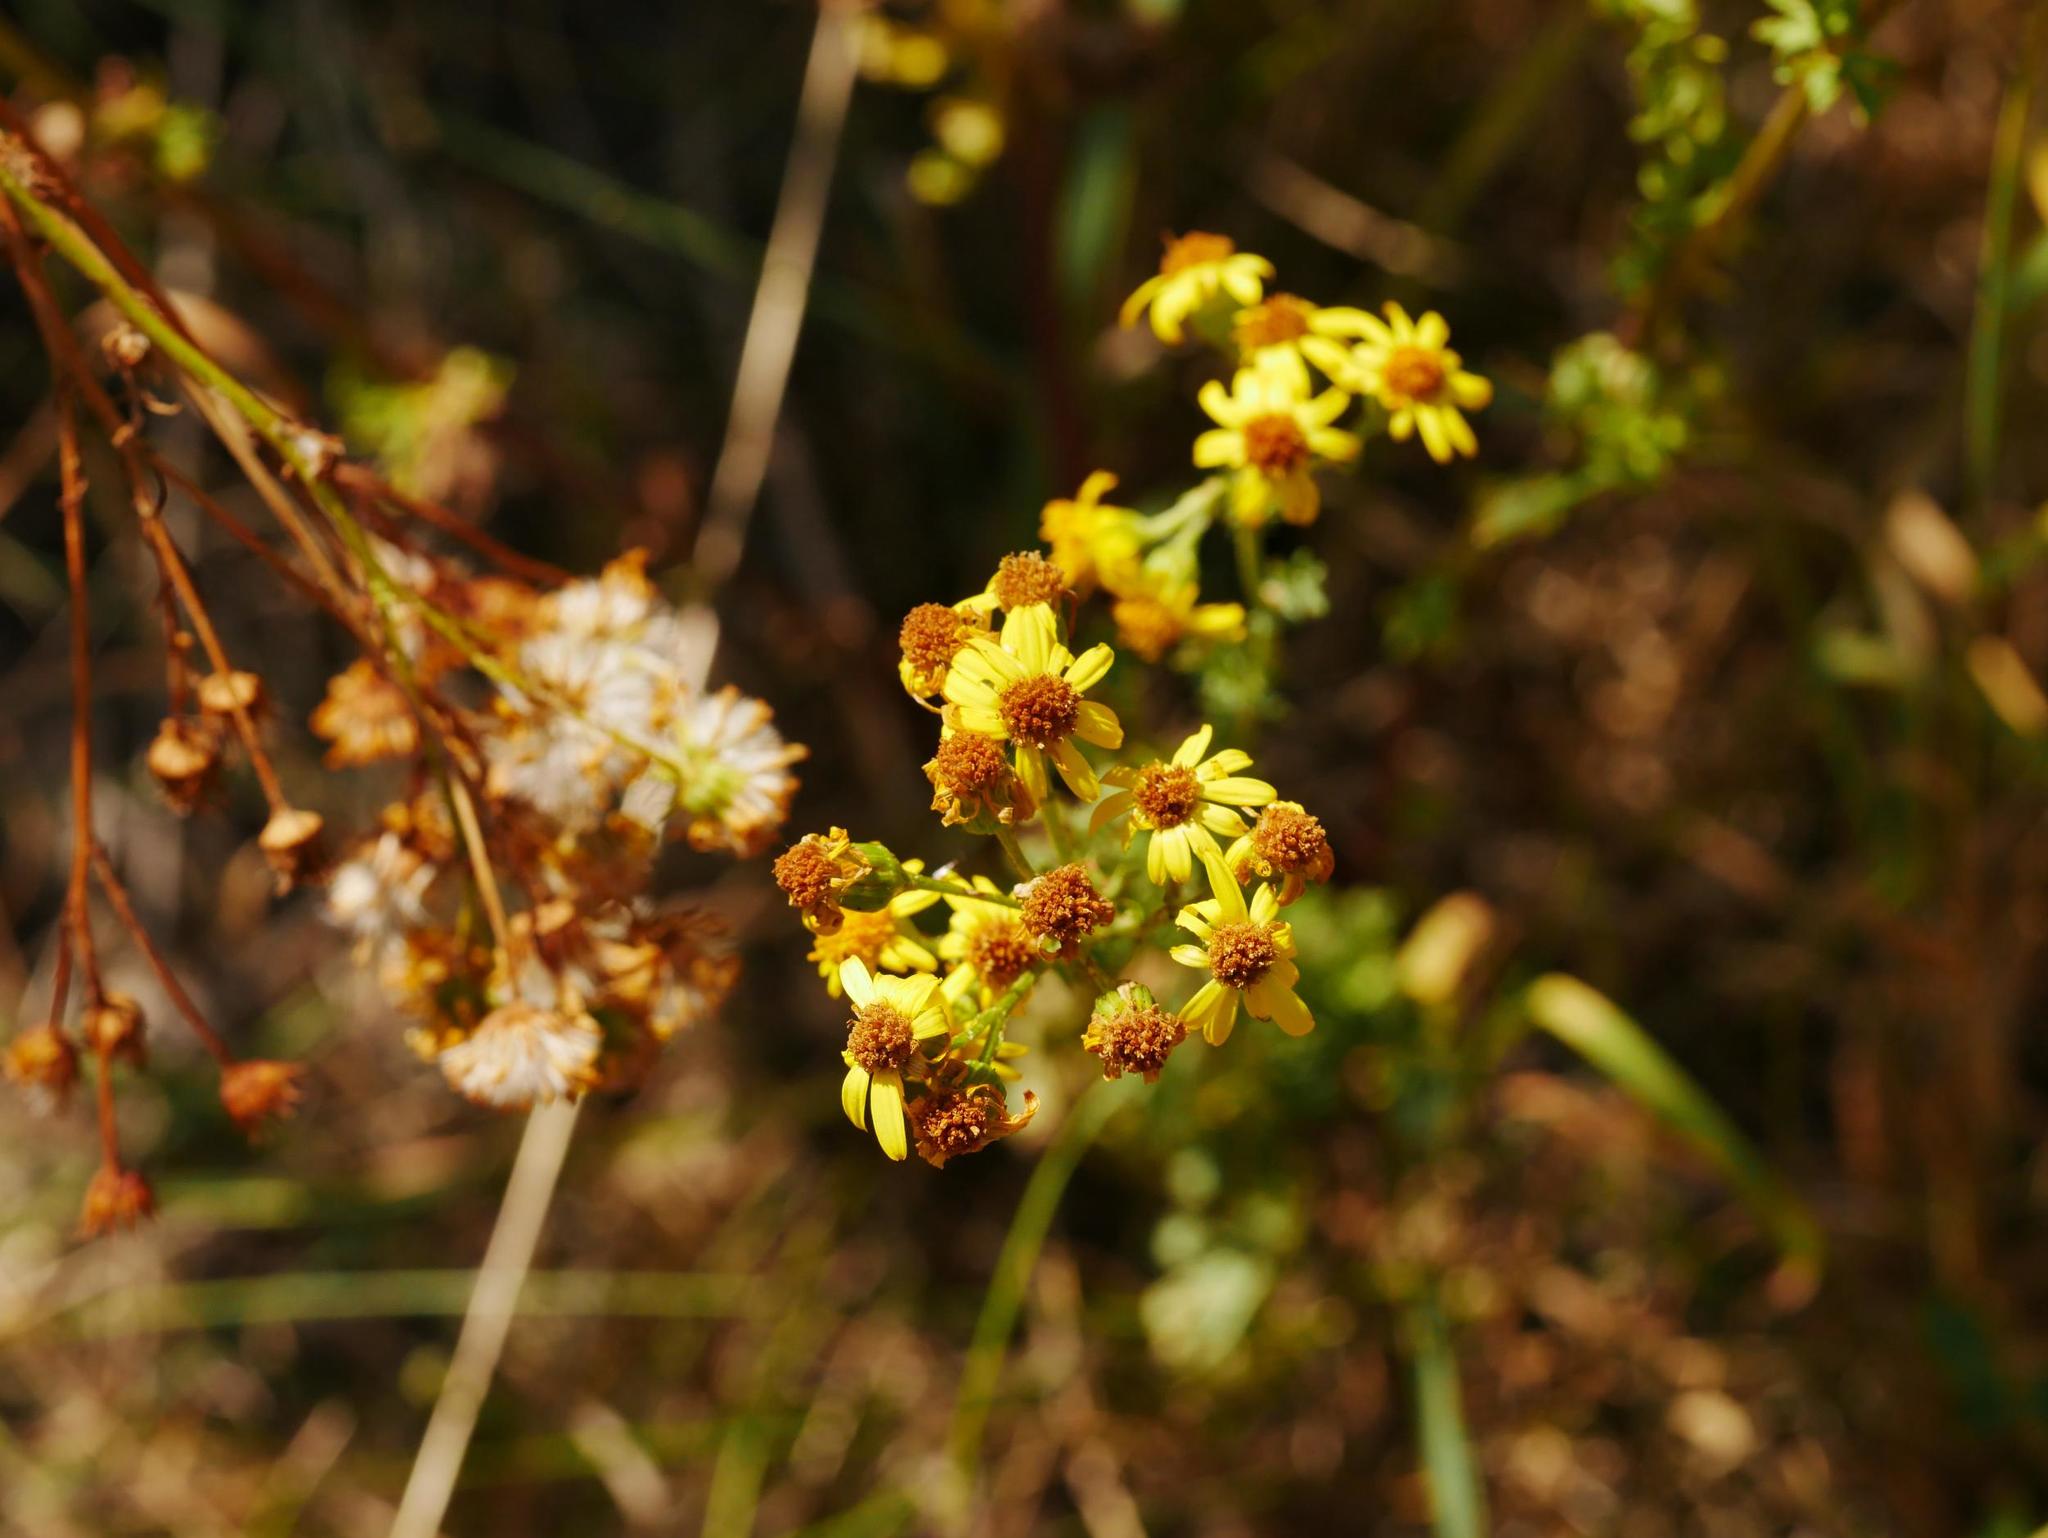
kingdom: Plantae
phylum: Tracheophyta
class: Magnoliopsida
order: Asterales
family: Asteraceae
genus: Jacobaea
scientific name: Jacobaea vulgaris
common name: Stinking willie
